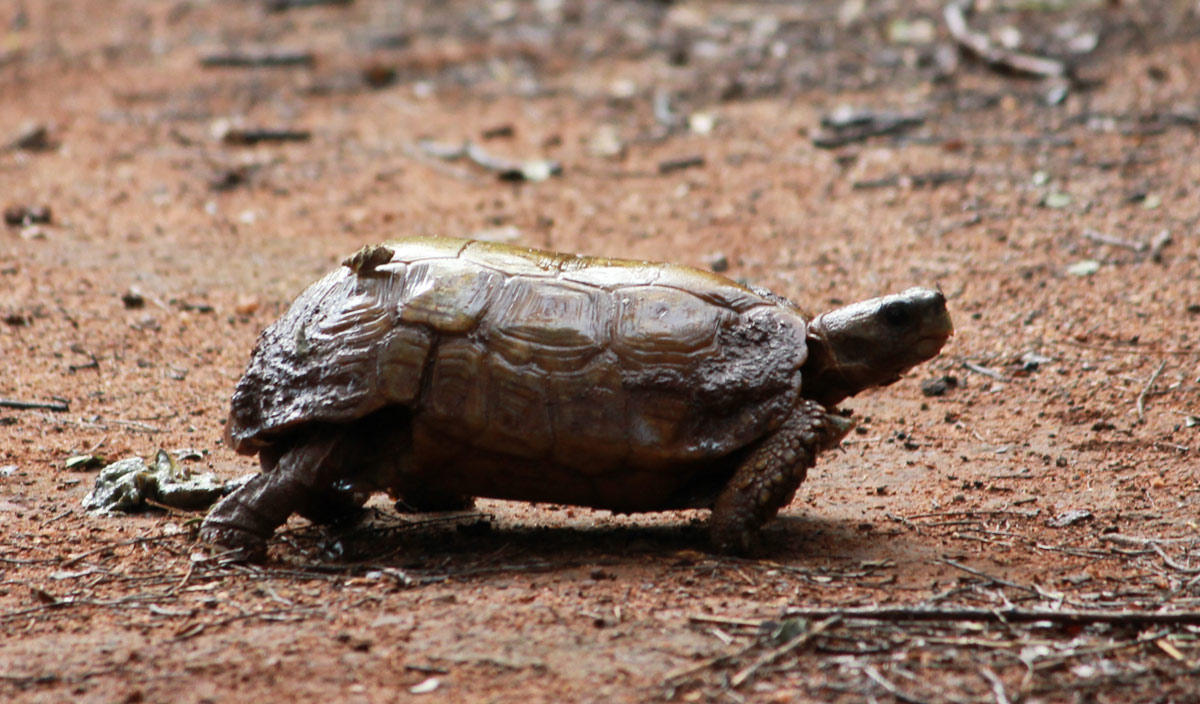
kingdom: Animalia
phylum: Chordata
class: Testudines
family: Testudinidae
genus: Kinixys
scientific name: Kinixys spekii
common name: Speke's hingeback tortoise
